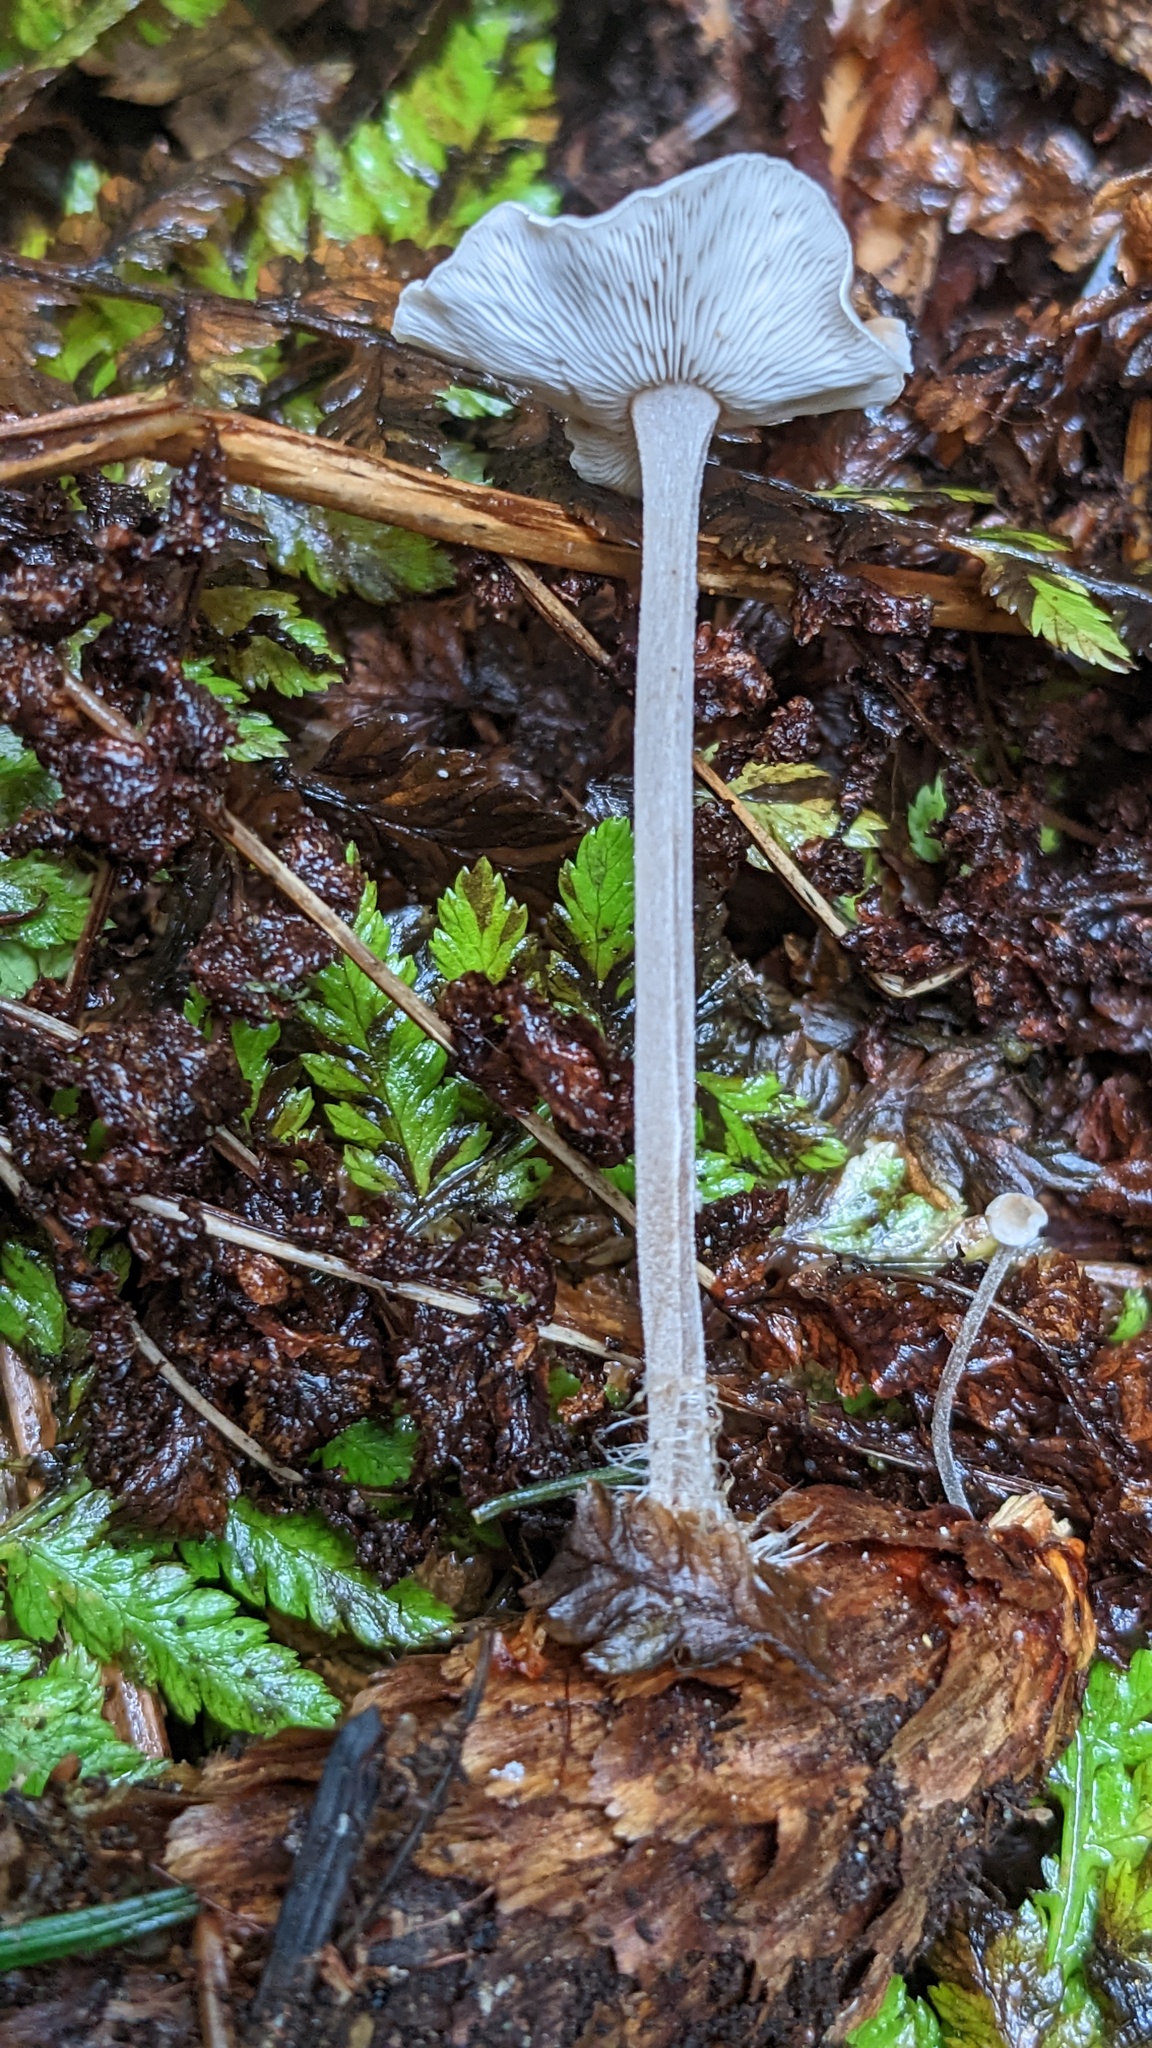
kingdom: Fungi
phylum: Basidiomycota
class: Agaricomycetes
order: Agaricales
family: Marasmiaceae
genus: Baeospora
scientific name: Baeospora myosura
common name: Conifercone cap
